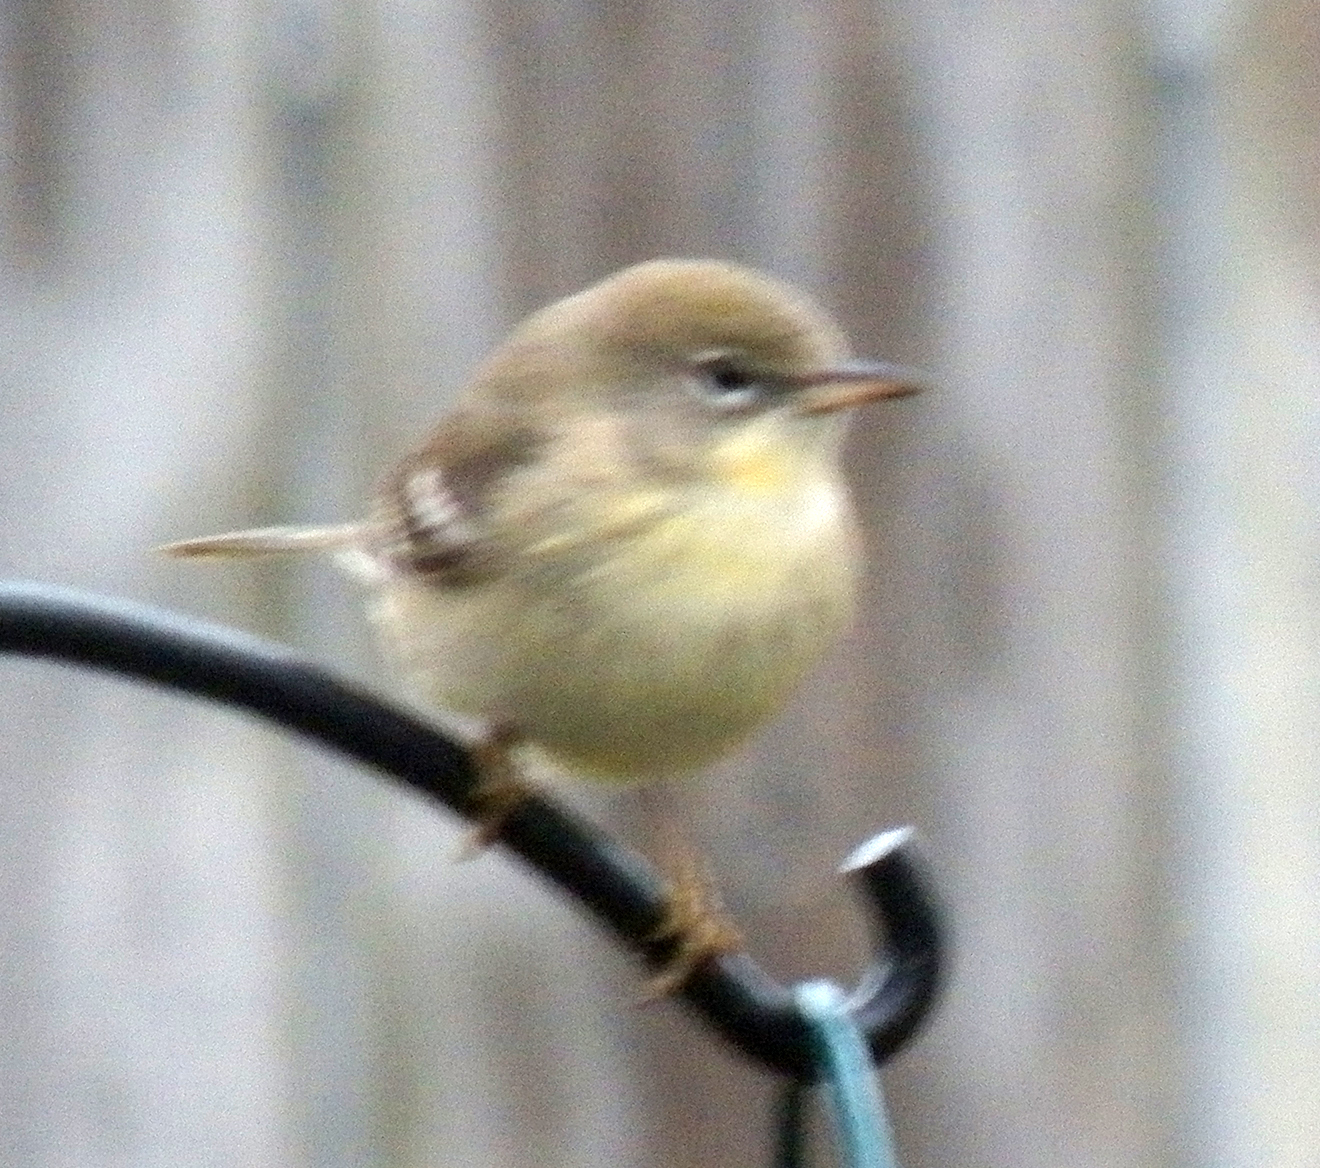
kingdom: Animalia
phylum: Chordata
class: Aves
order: Passeriformes
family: Parulidae
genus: Setophaga
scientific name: Setophaga pinus
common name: Pine warbler
